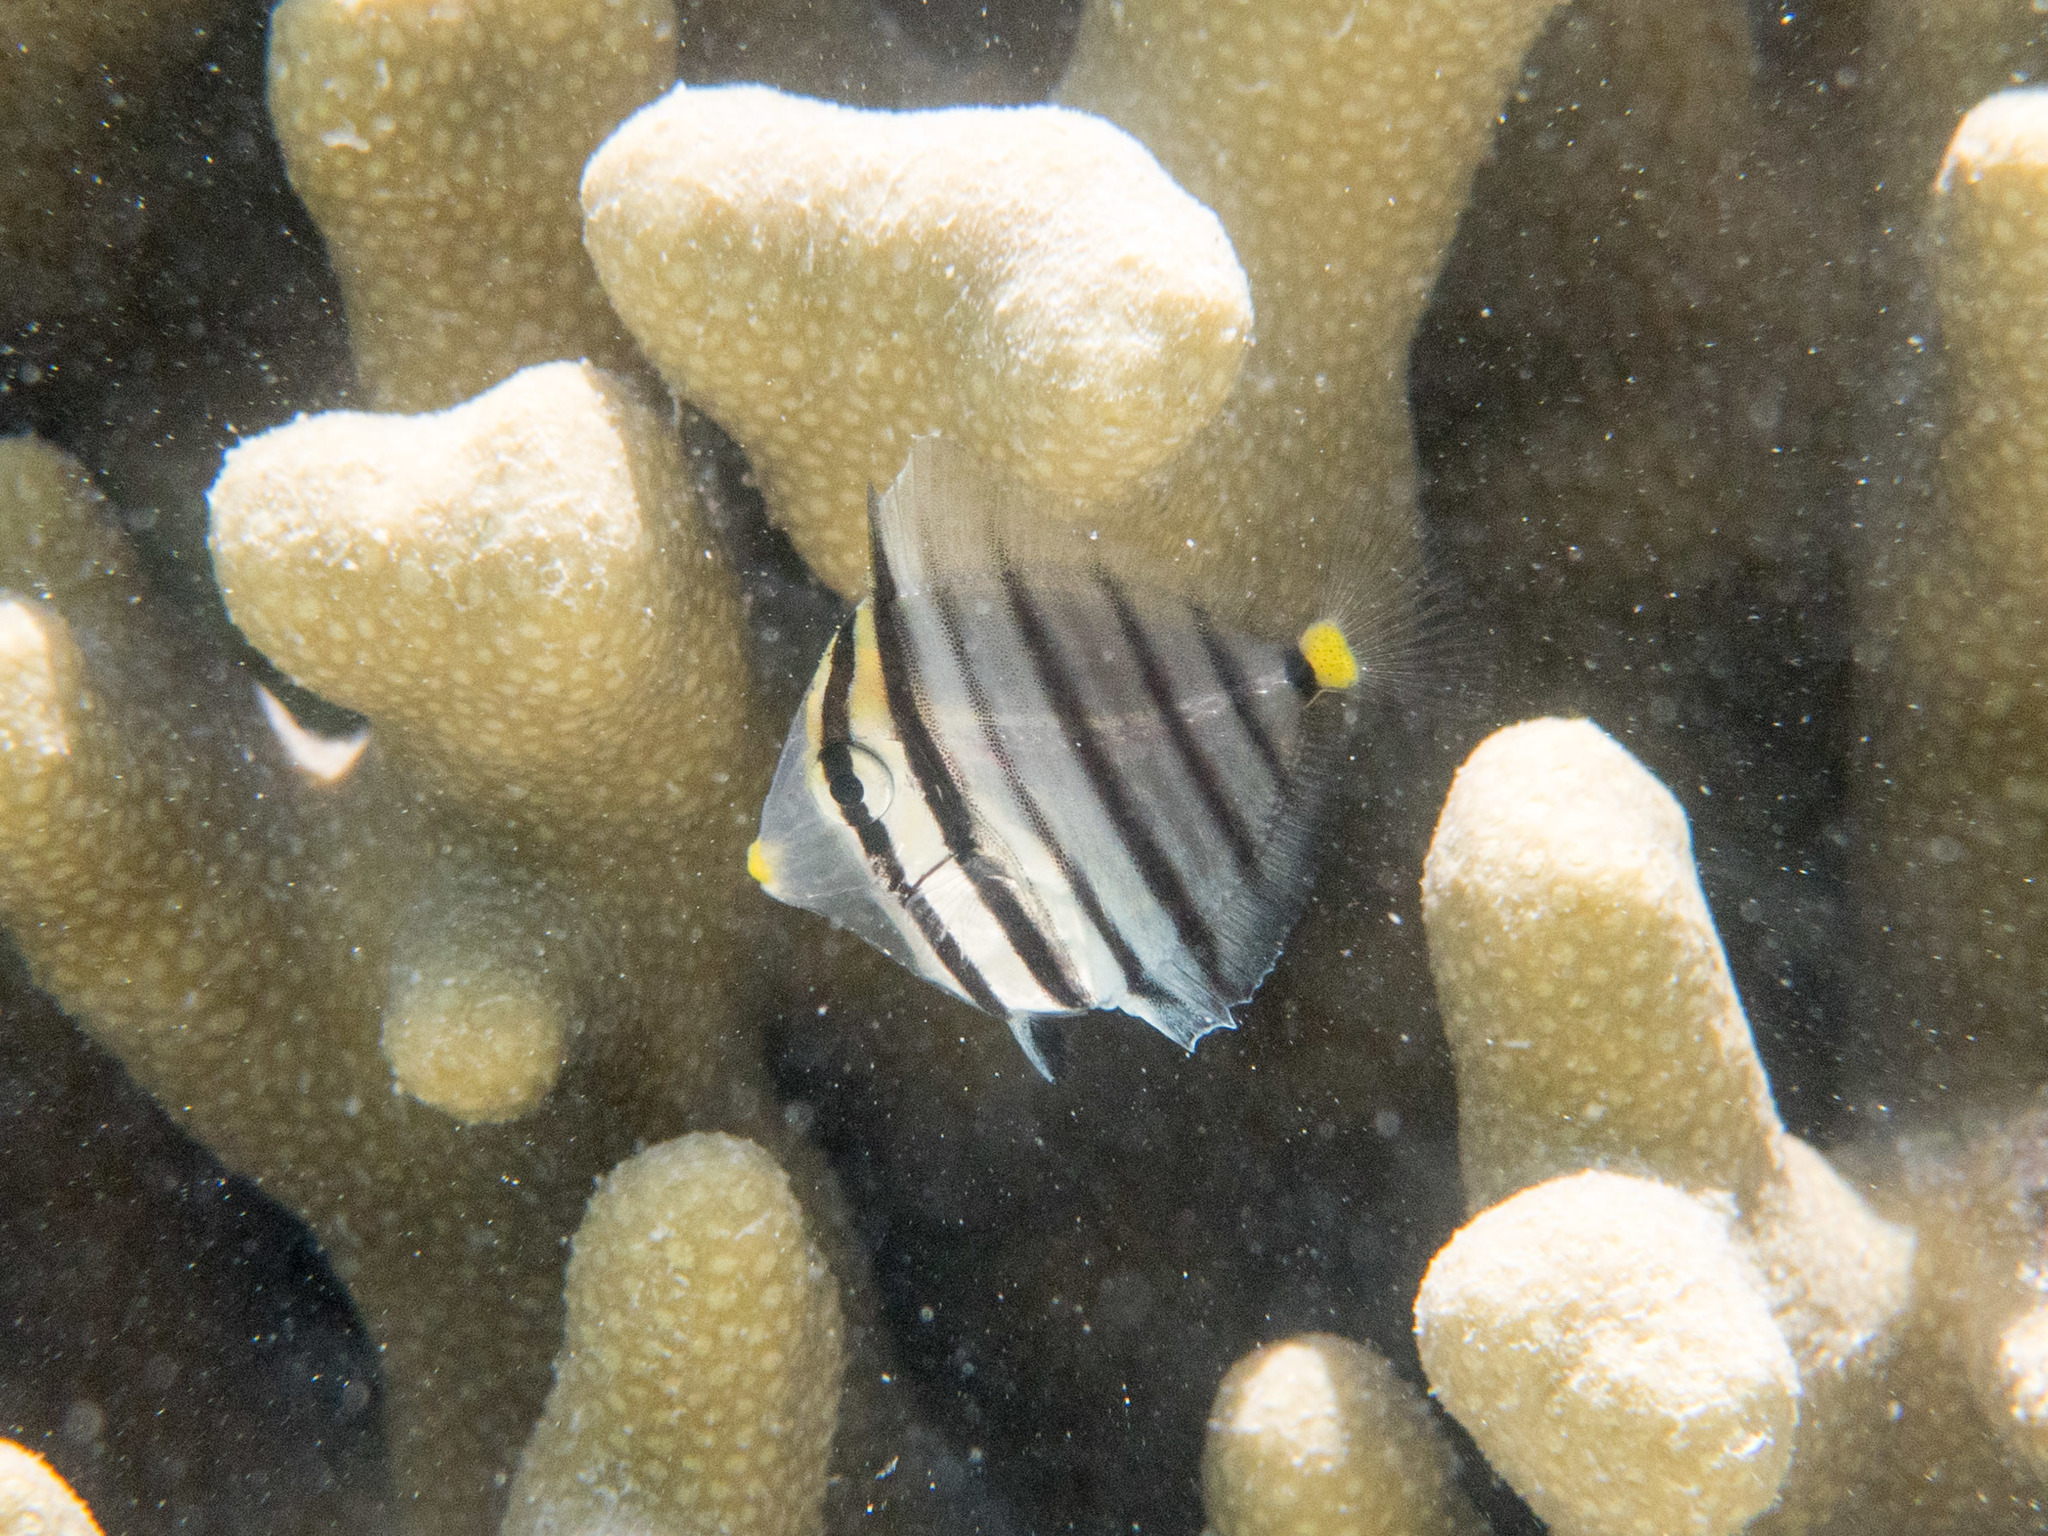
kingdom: Animalia
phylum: Chordata
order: Perciformes
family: Acanthuridae
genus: Zebrasoma
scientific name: Zebrasoma desjardinii
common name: Desjardin's sailfin tang
